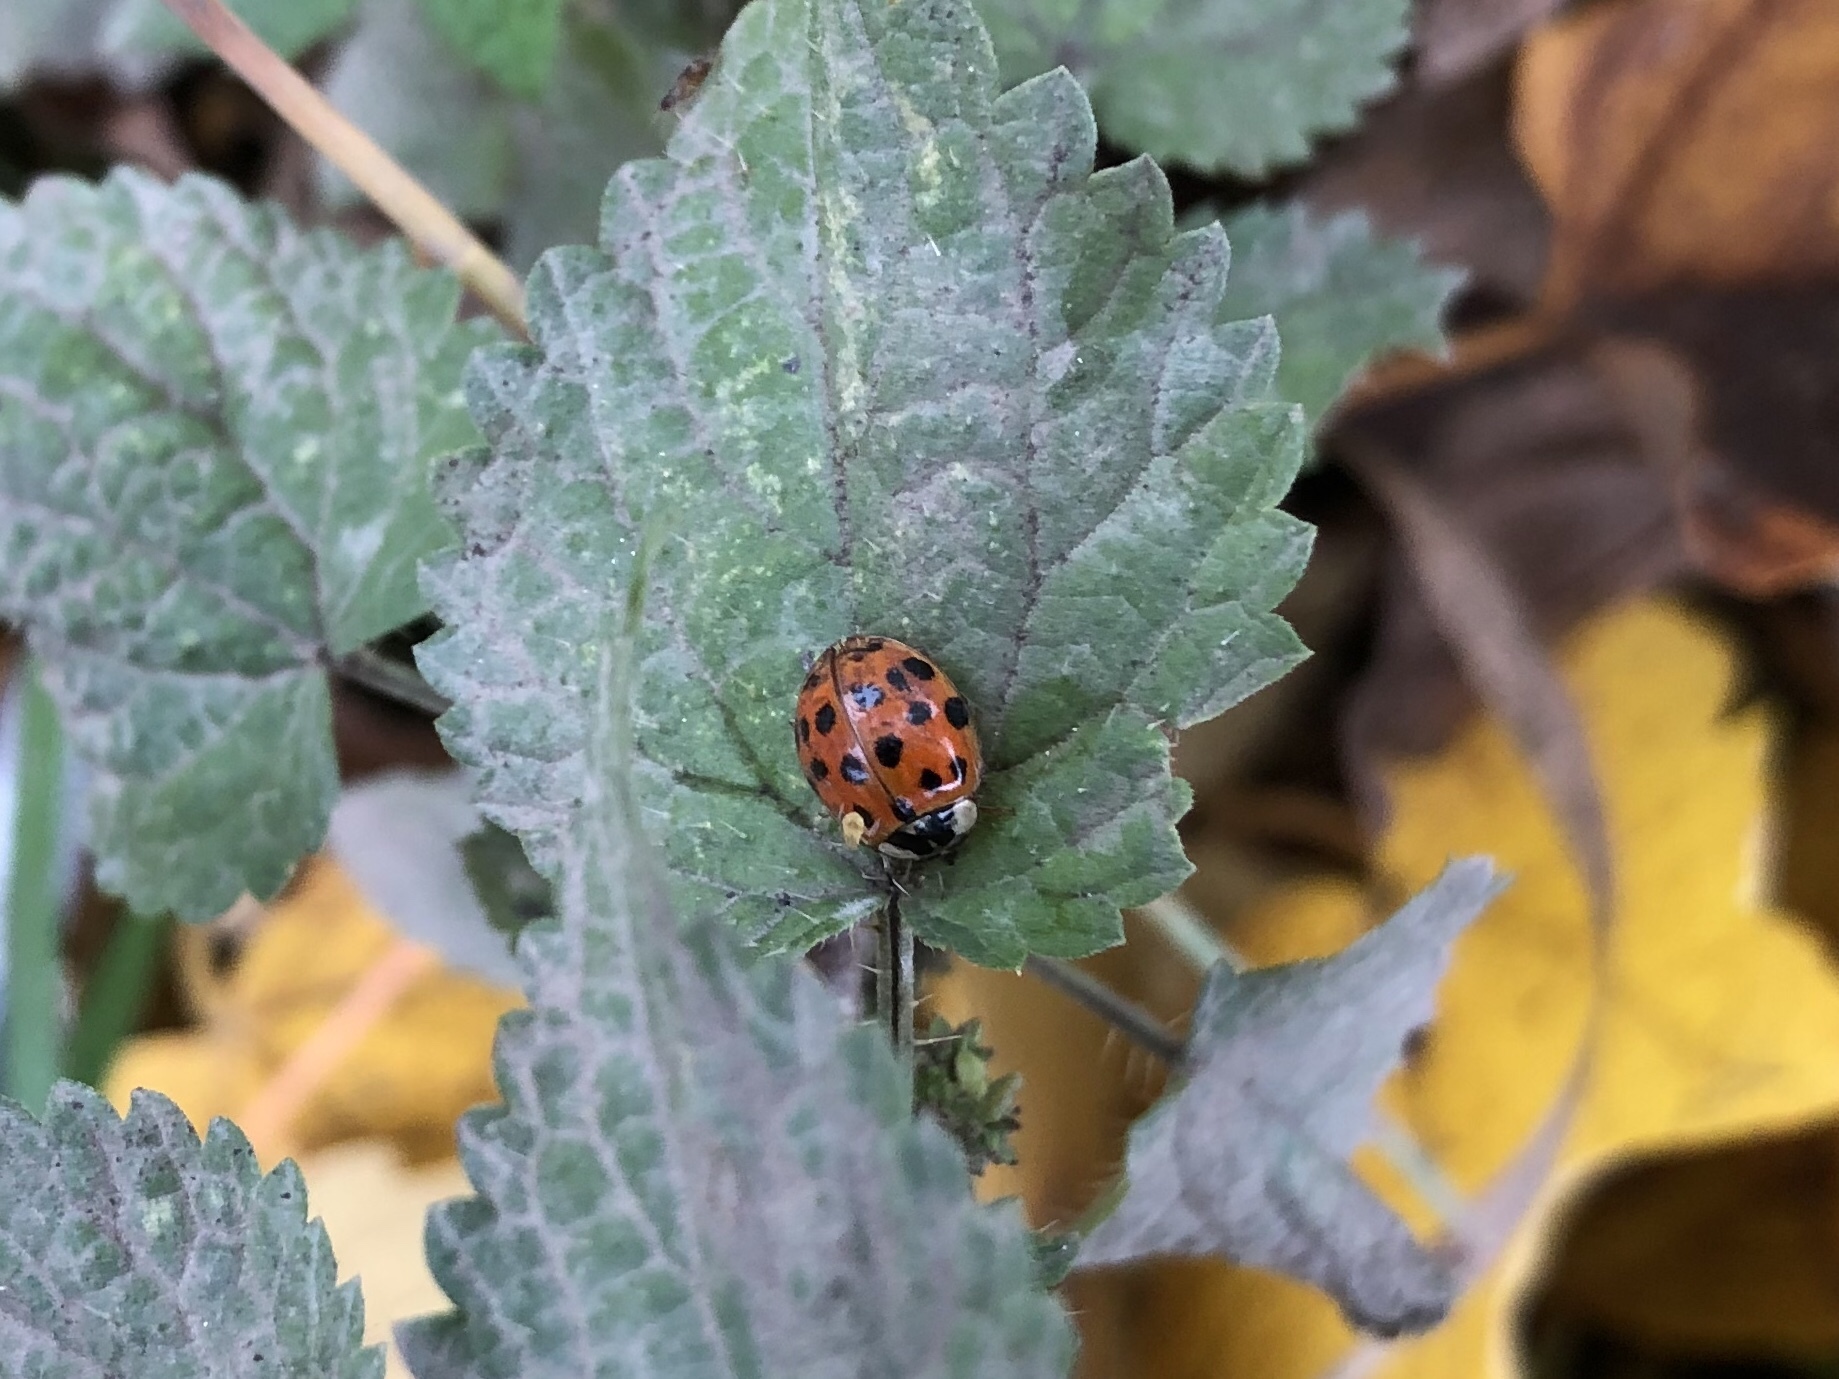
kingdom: Animalia
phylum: Arthropoda
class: Insecta
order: Coleoptera
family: Coccinellidae
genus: Harmonia
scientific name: Harmonia axyridis
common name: Harlequin ladybird
